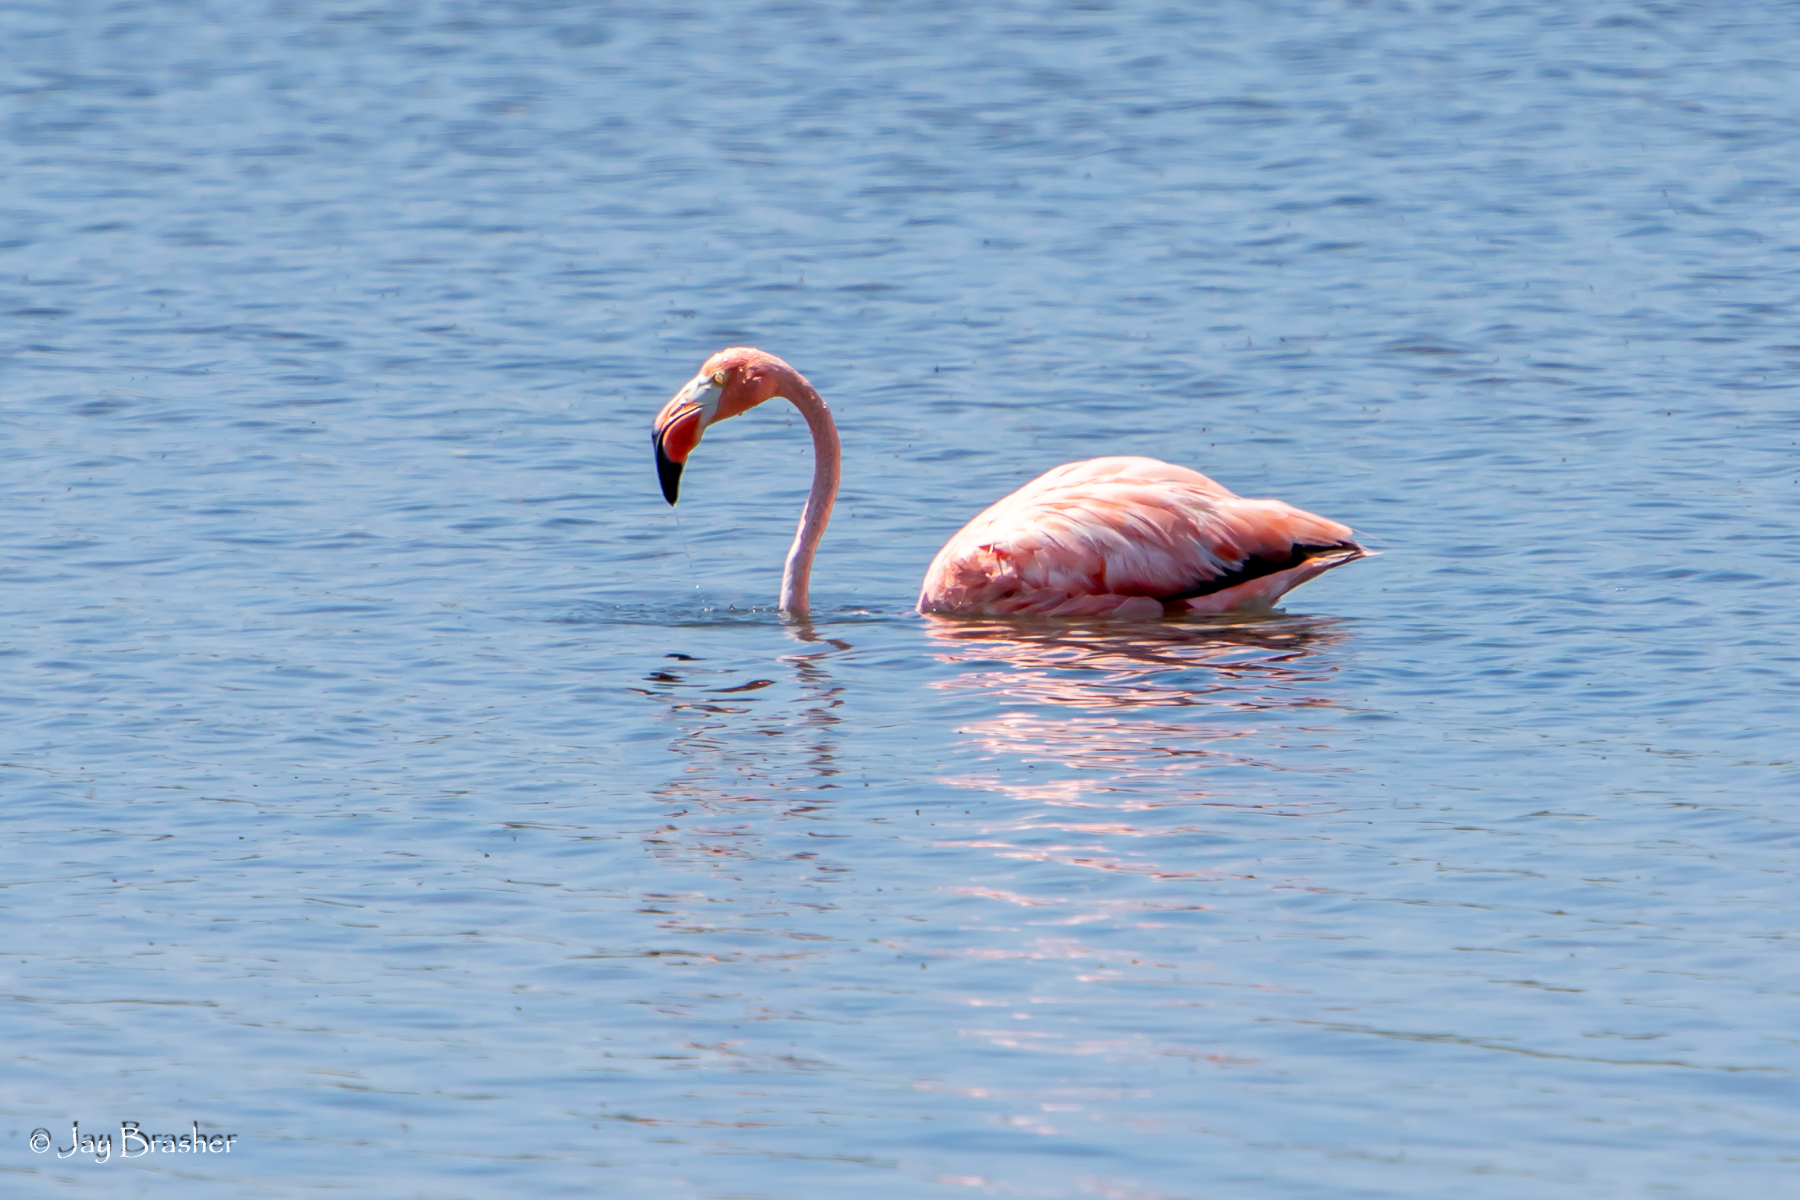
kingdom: Animalia
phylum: Chordata
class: Aves
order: Phoenicopteriformes
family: Phoenicopteridae
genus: Phoenicopterus
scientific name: Phoenicopterus ruber
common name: American flamingo
